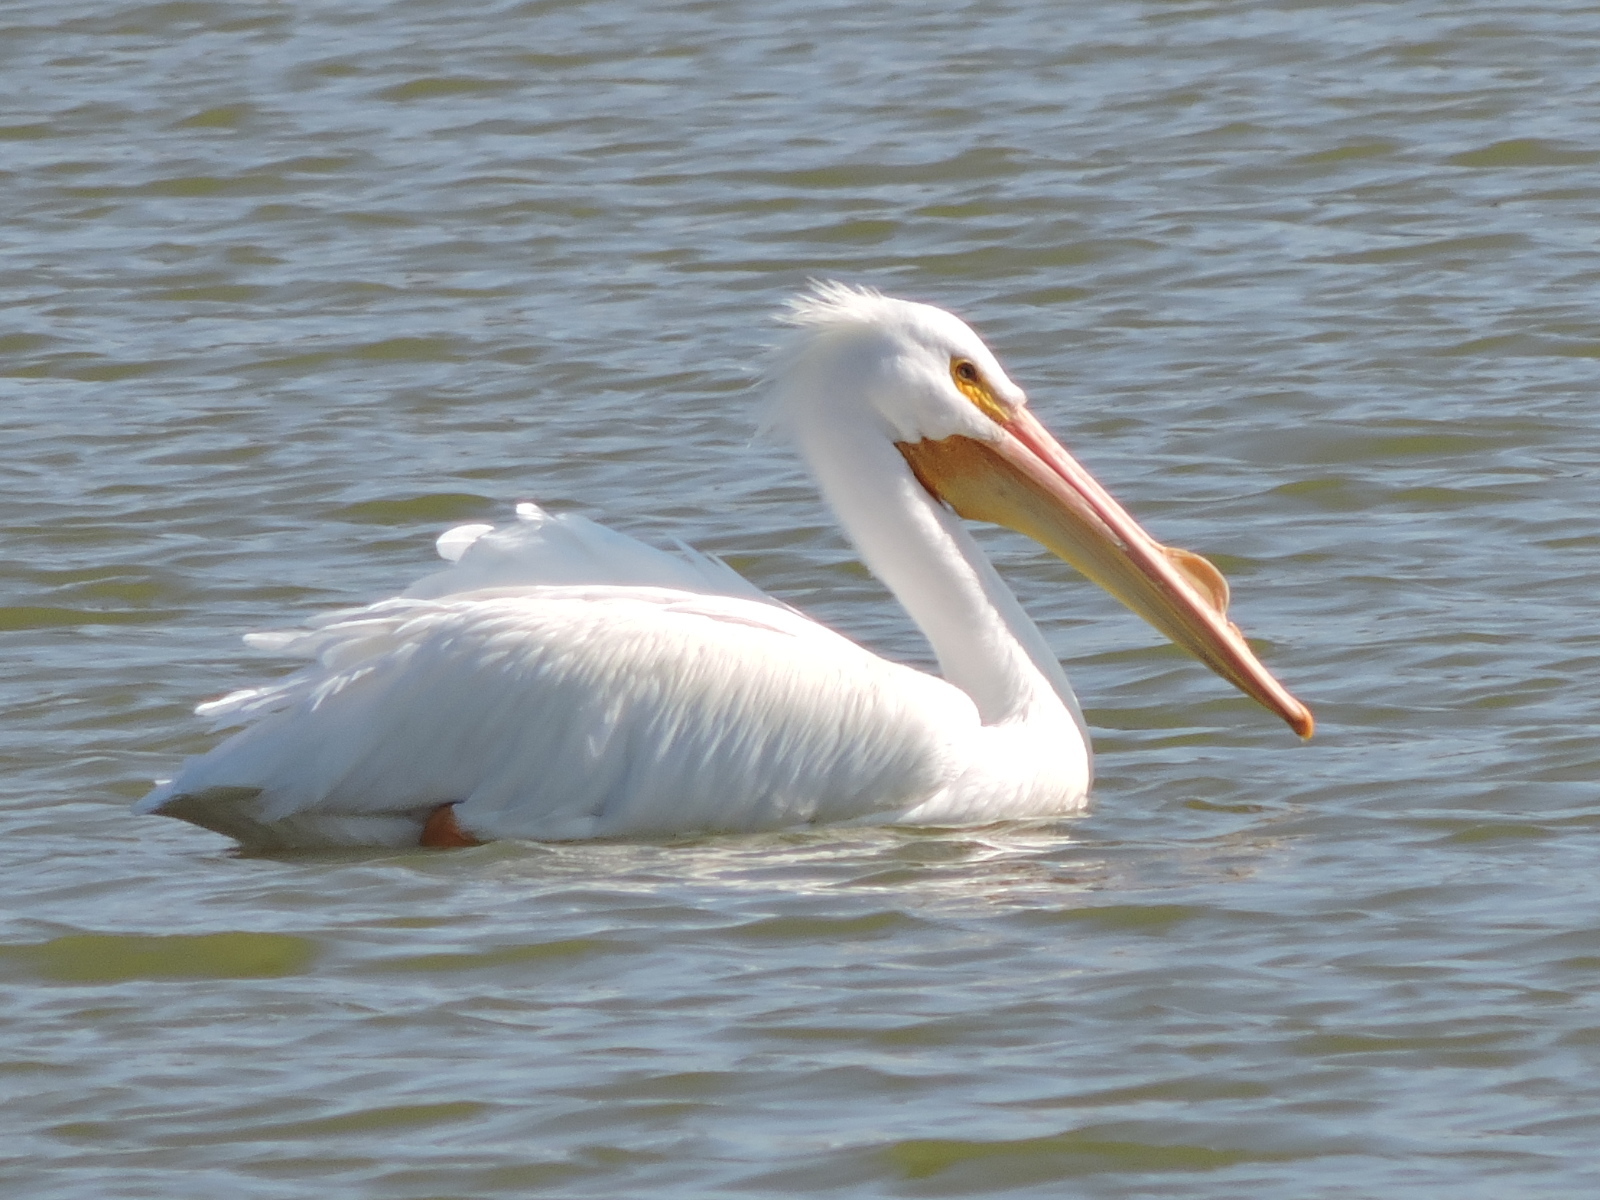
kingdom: Animalia
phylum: Chordata
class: Aves
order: Pelecaniformes
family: Pelecanidae
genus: Pelecanus
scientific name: Pelecanus erythrorhynchos
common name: American white pelican
